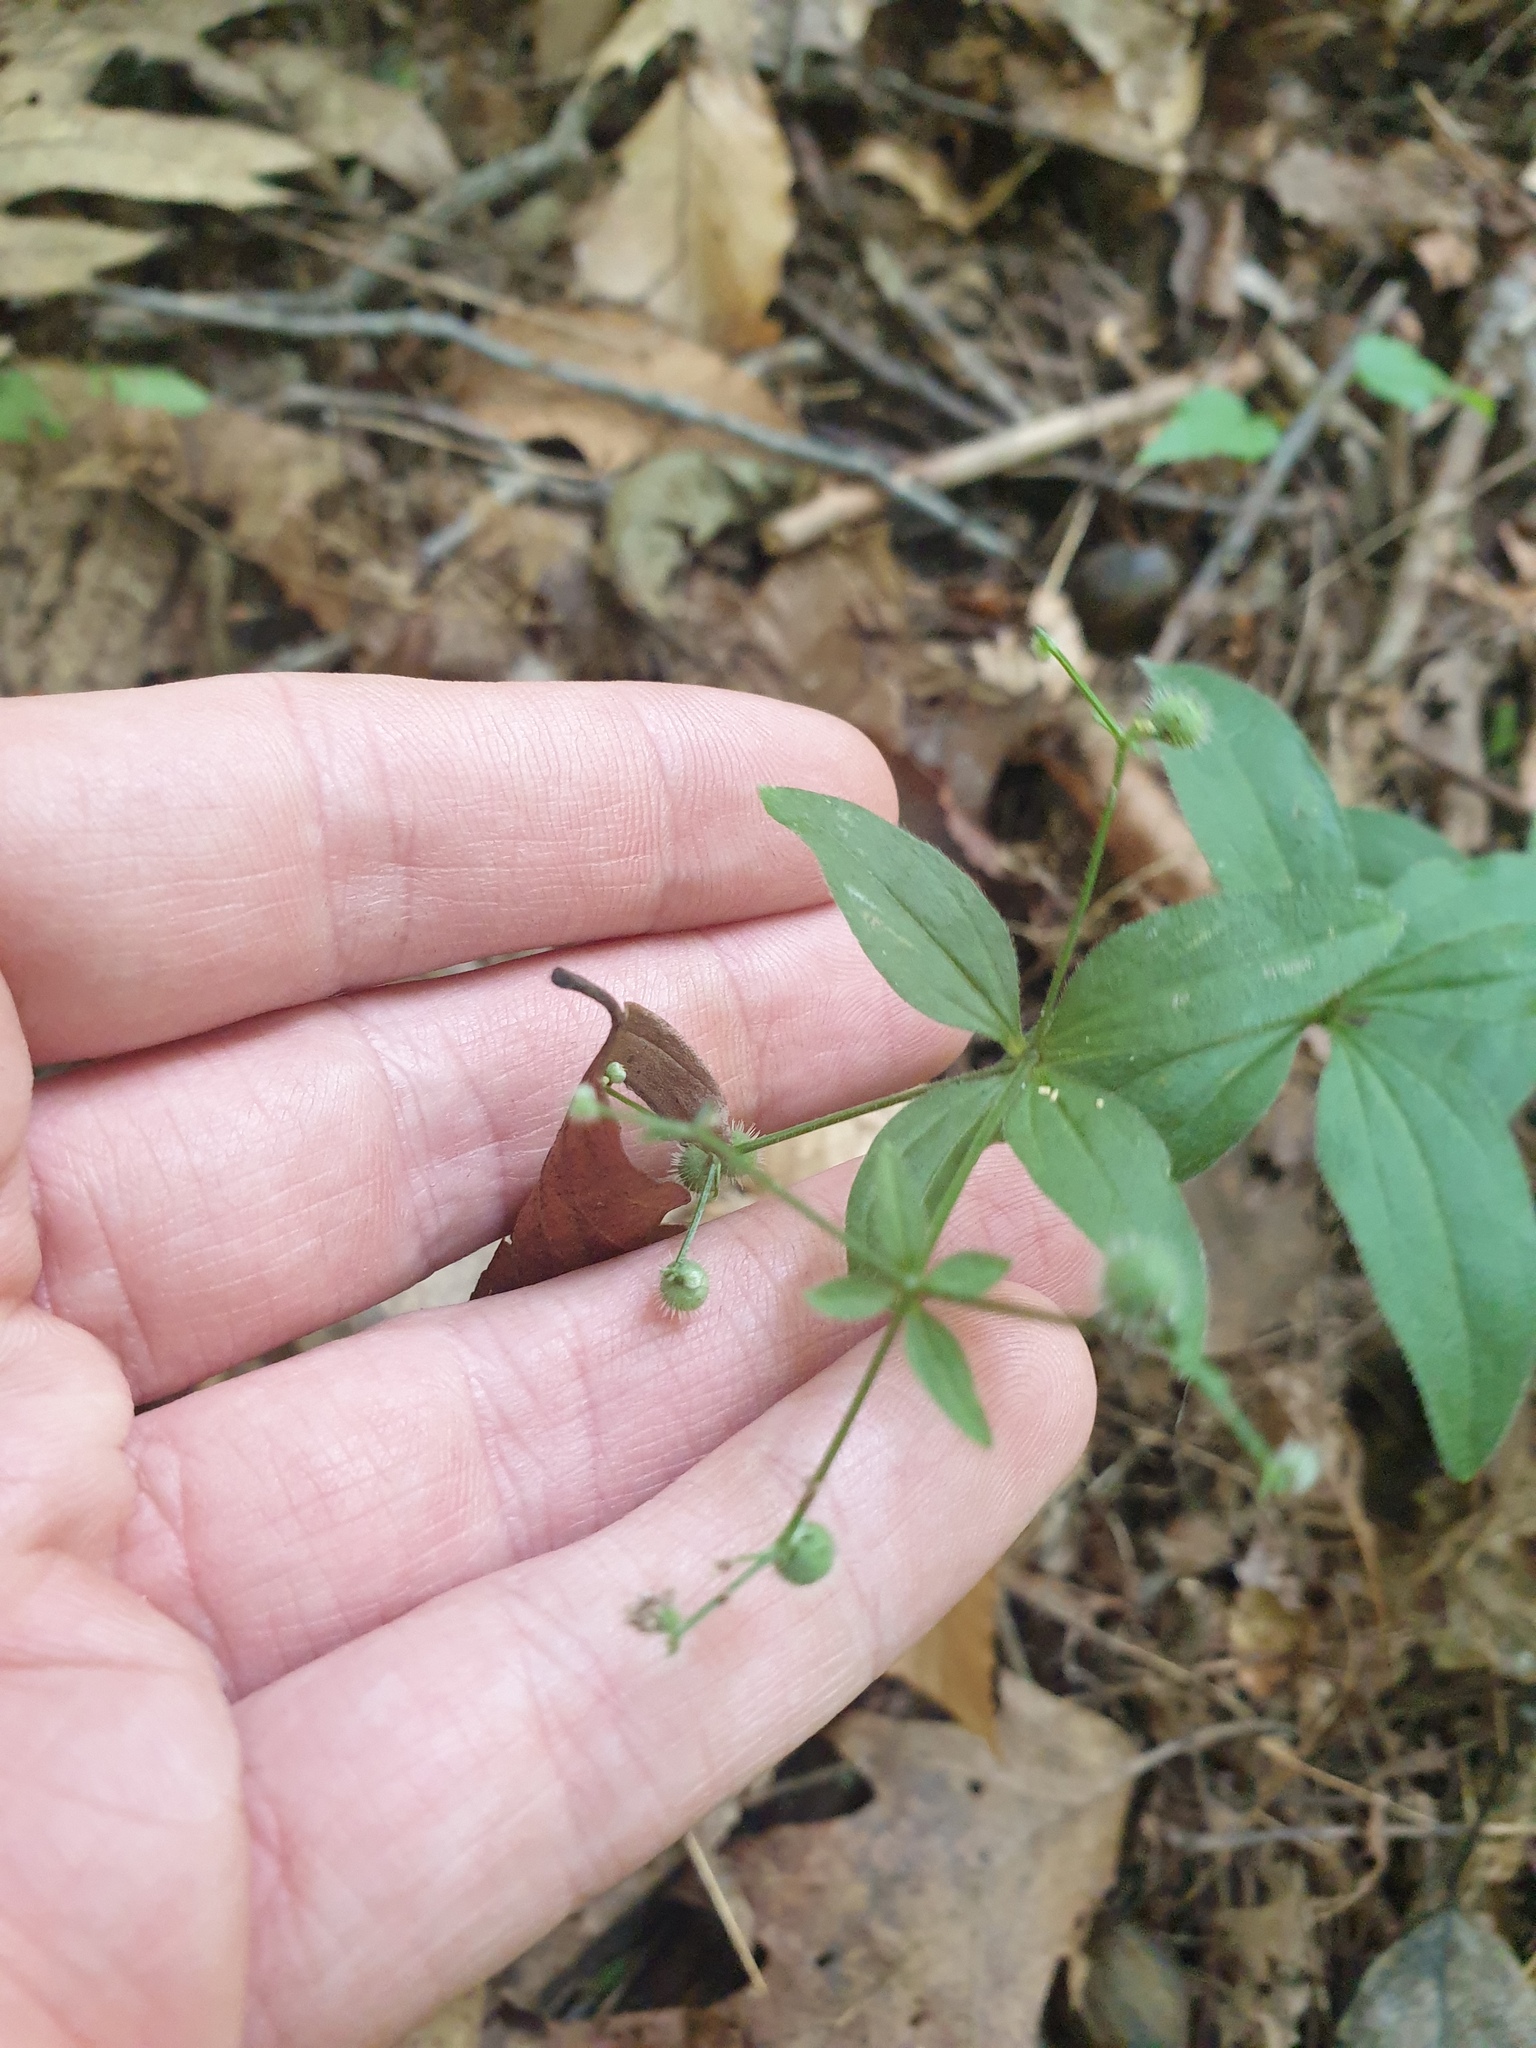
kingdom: Plantae
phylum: Tracheophyta
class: Magnoliopsida
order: Gentianales
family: Rubiaceae
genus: Galium
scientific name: Galium circaezans
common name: Forest bedstraw
